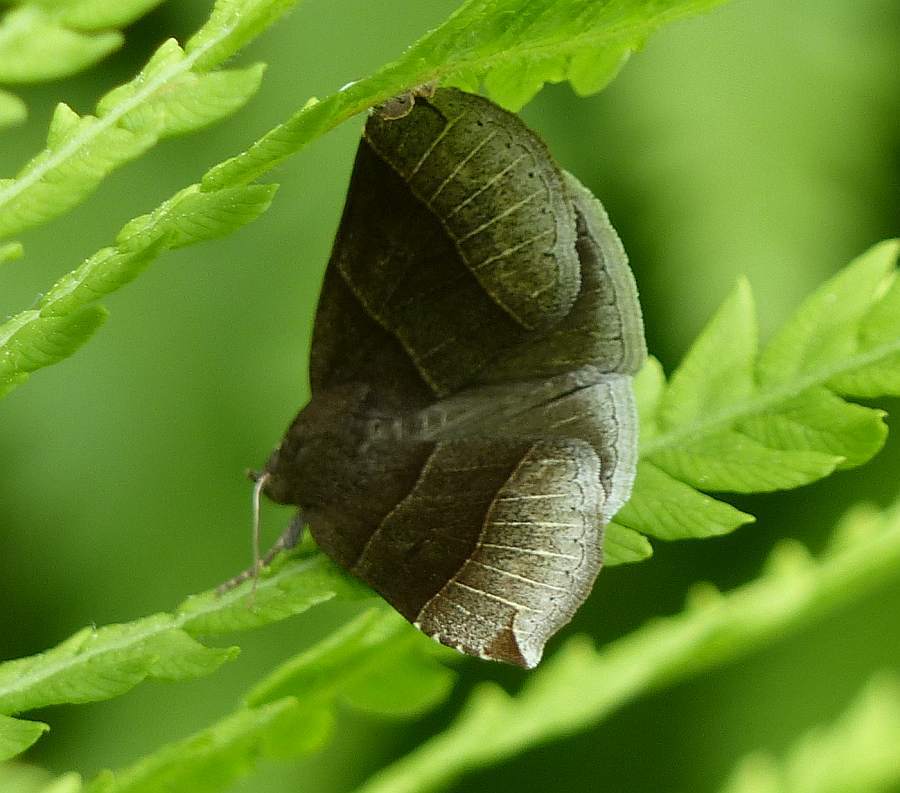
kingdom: Animalia
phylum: Arthropoda
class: Insecta
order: Lepidoptera
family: Erebidae
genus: Parallelia
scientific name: Parallelia bistriaris
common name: Maple looper moth
